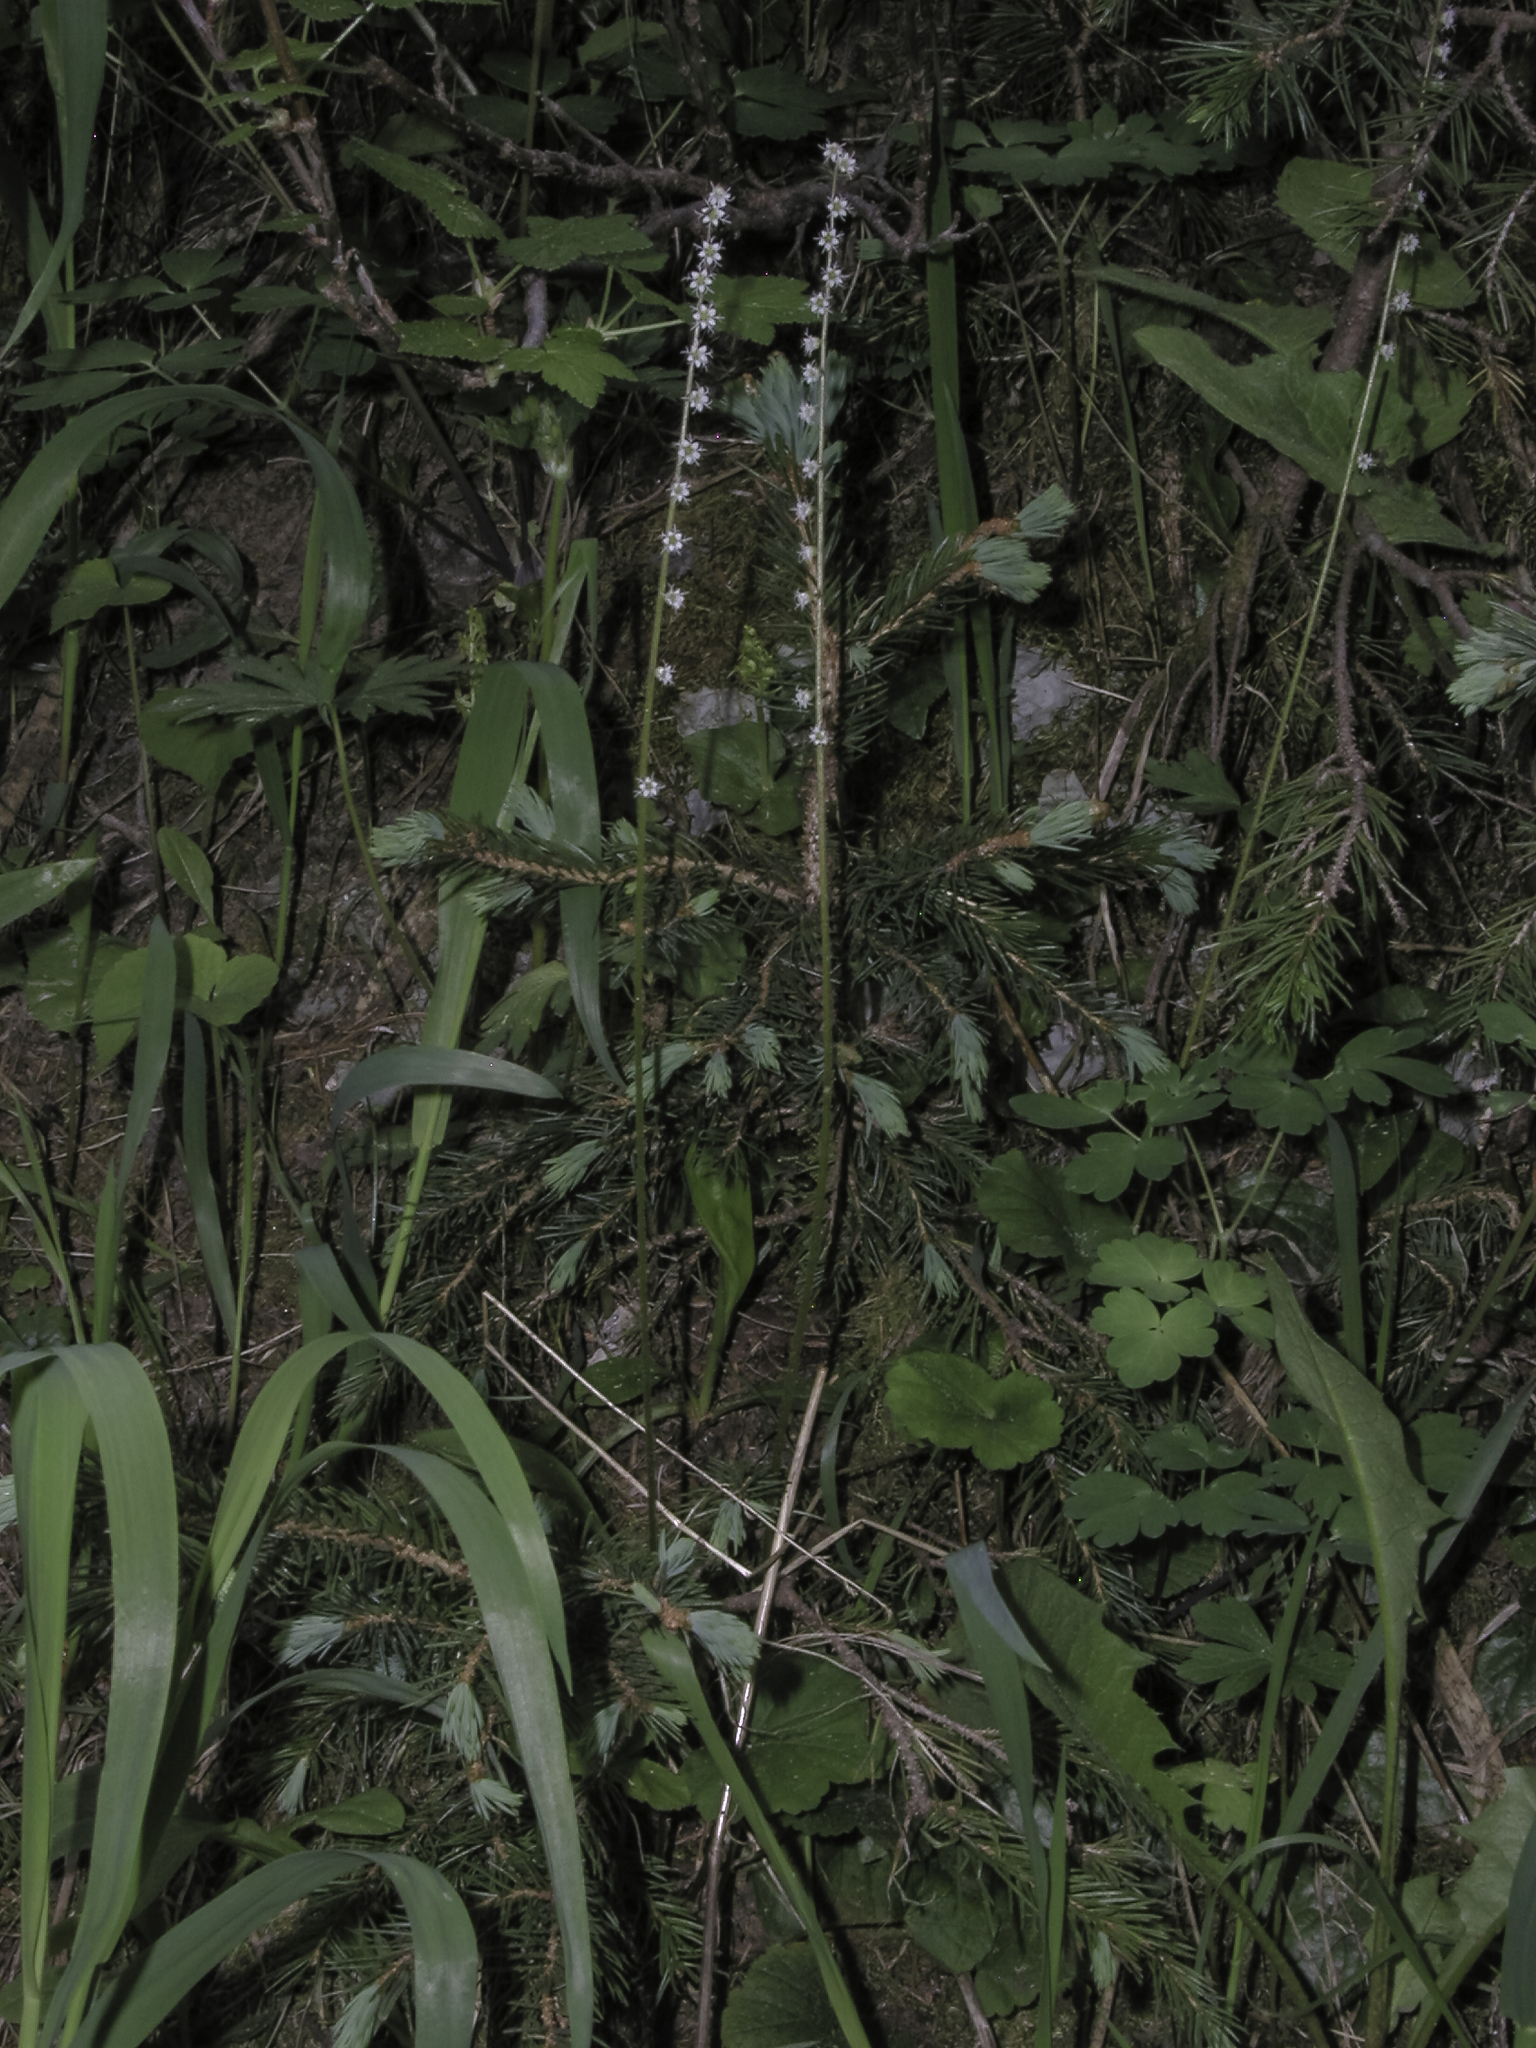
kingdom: Plantae
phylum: Tracheophyta
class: Magnoliopsida
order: Saxifragales
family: Saxifragaceae
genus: Ozomelis
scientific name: Ozomelis stauropetala
